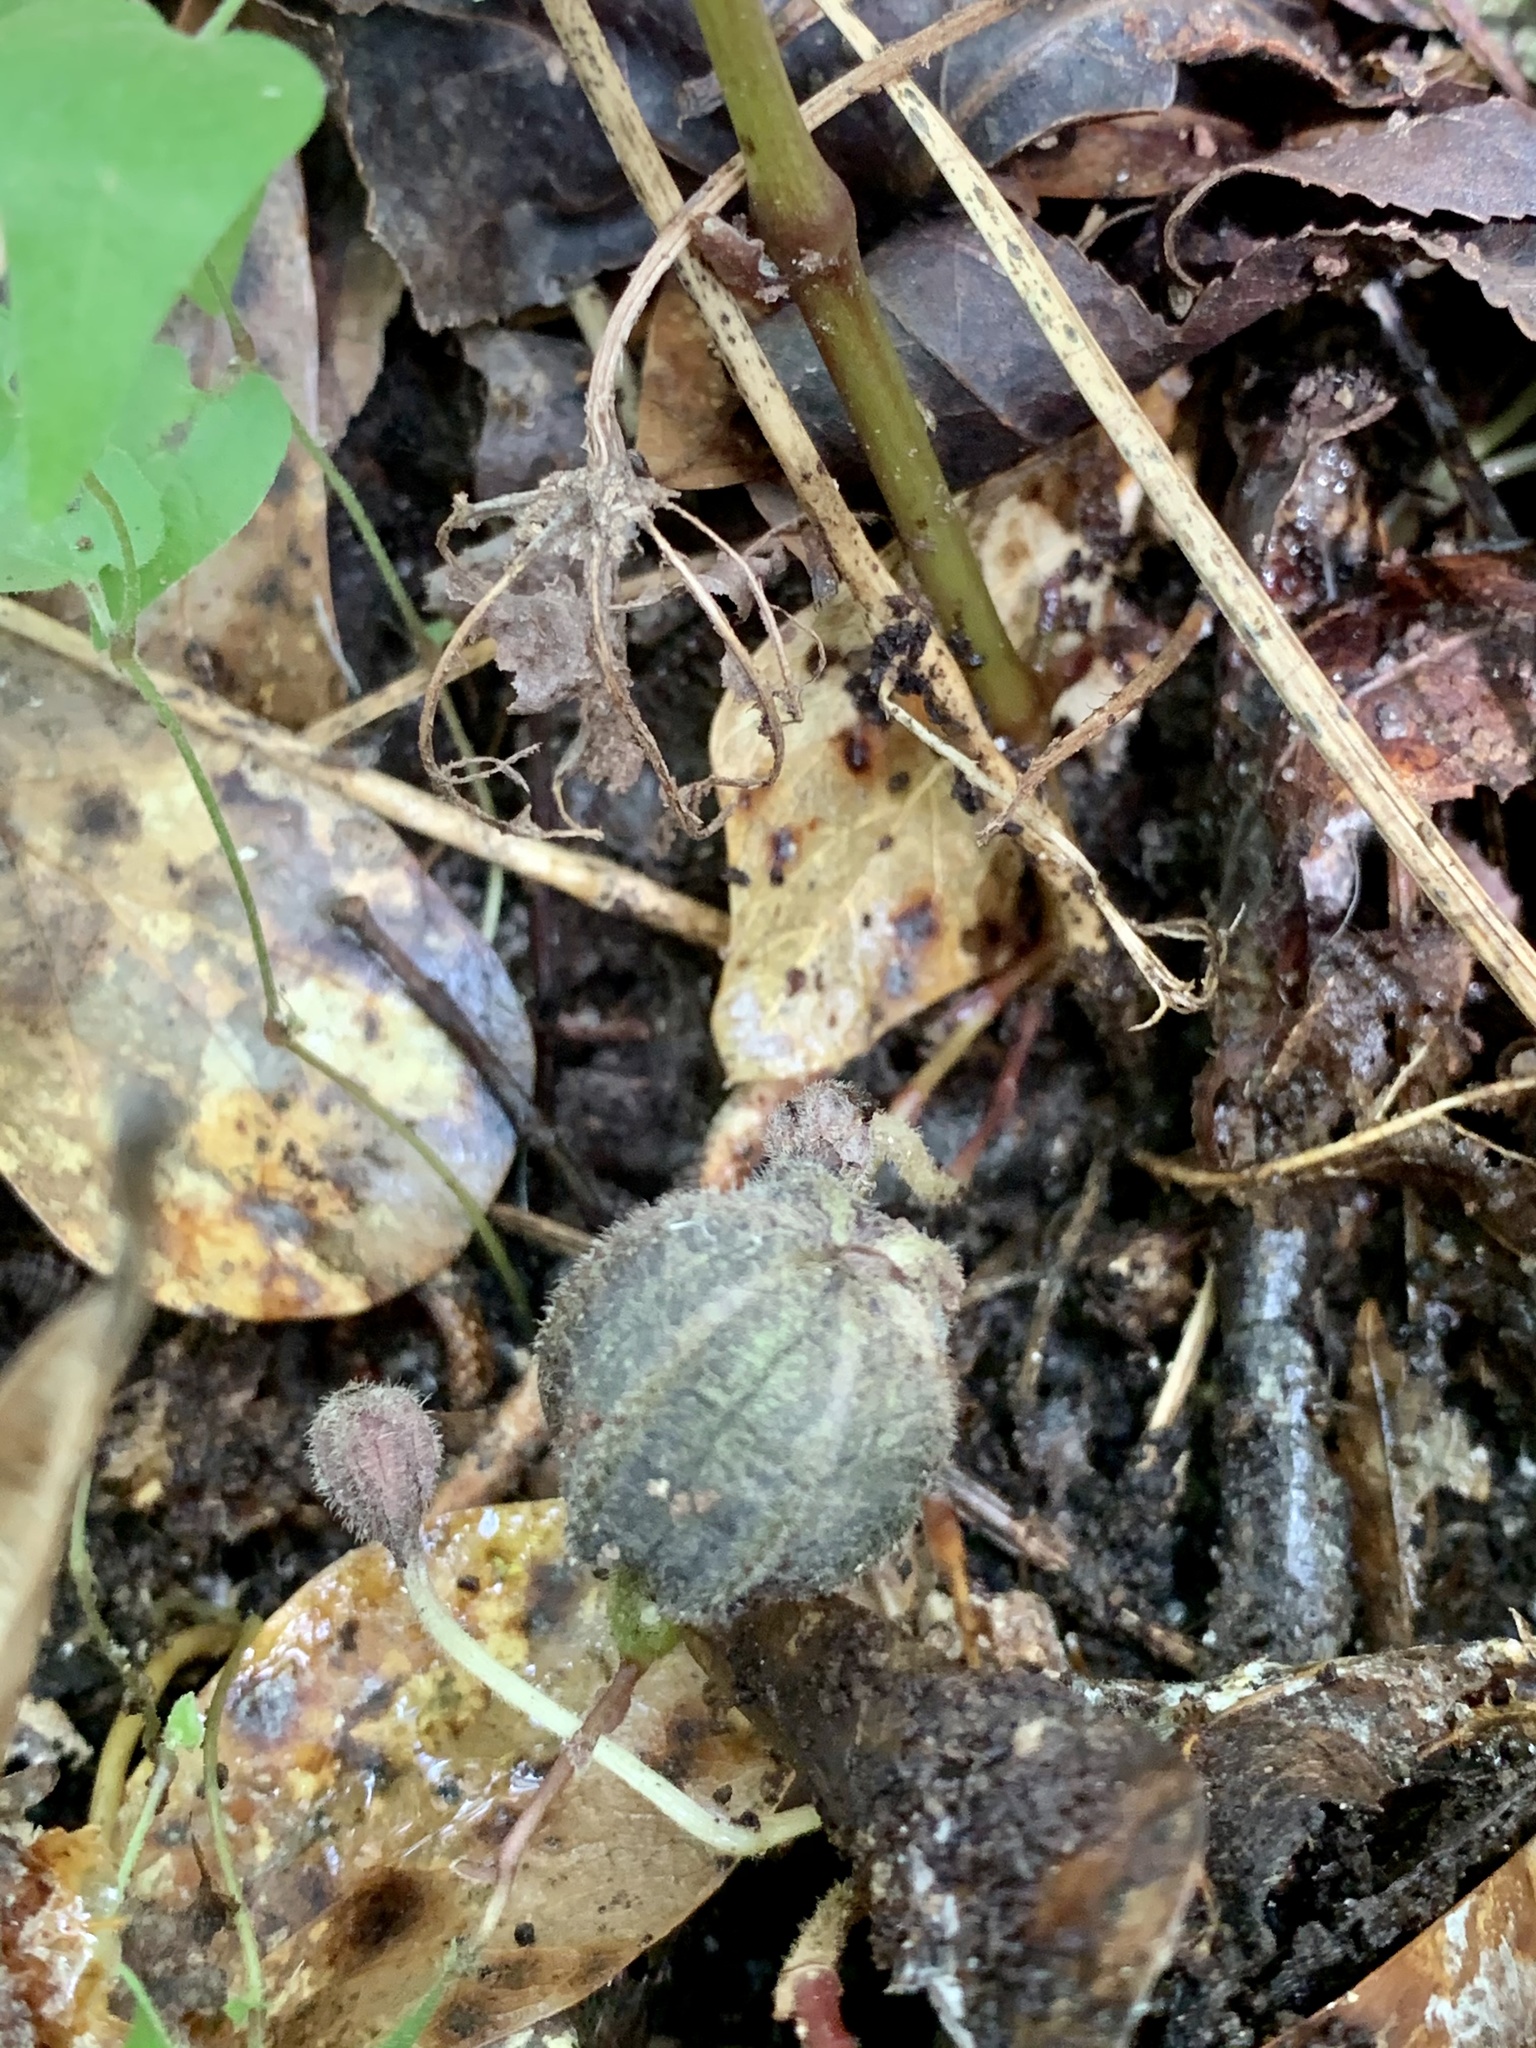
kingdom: Plantae
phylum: Tracheophyta
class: Magnoliopsida
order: Piperales
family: Aristolochiaceae
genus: Endodeca
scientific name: Endodeca serpentaria
